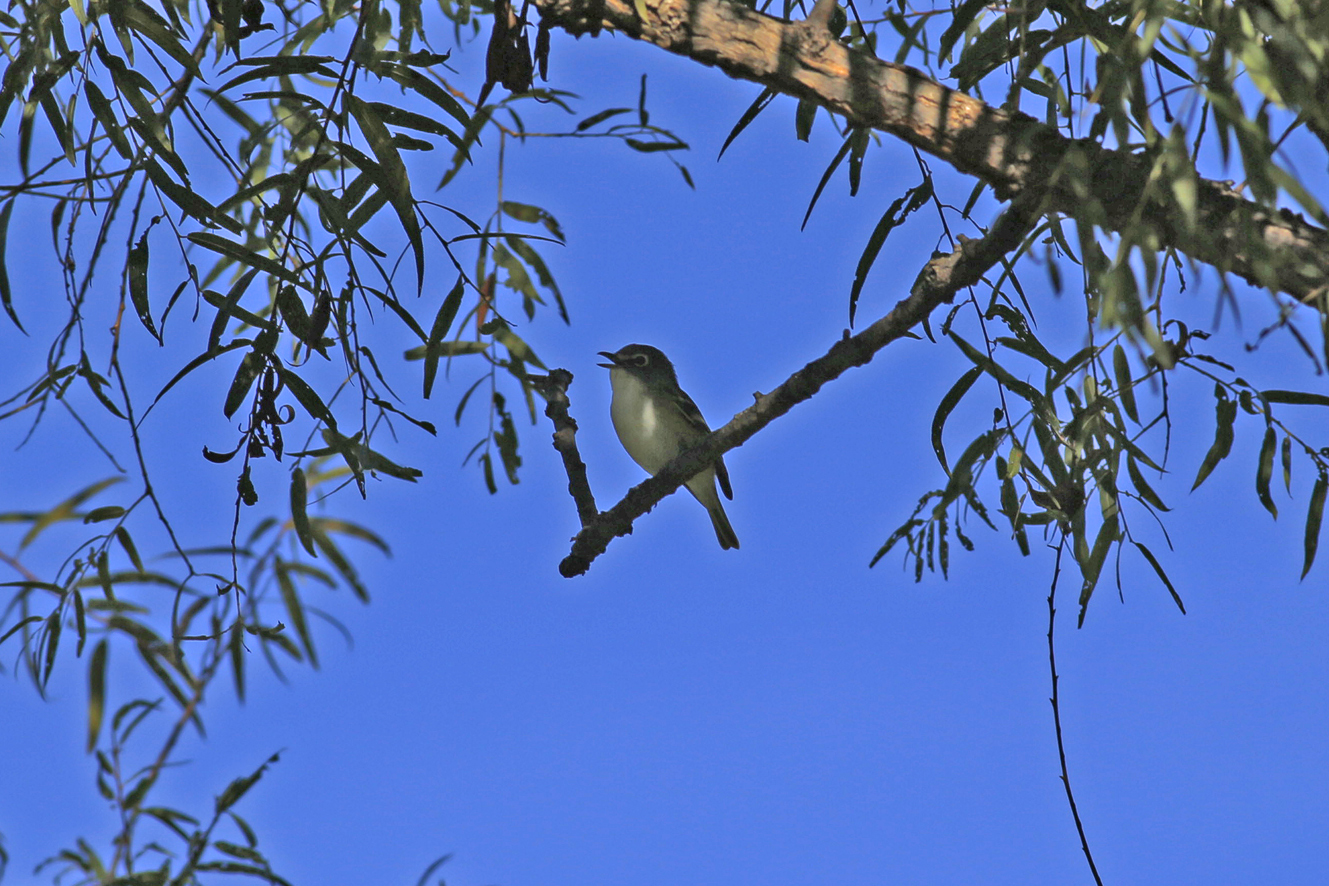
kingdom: Animalia
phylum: Chordata
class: Aves
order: Passeriformes
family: Vireonidae
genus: Vireo
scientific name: Vireo solitarius
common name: Blue-headed vireo
